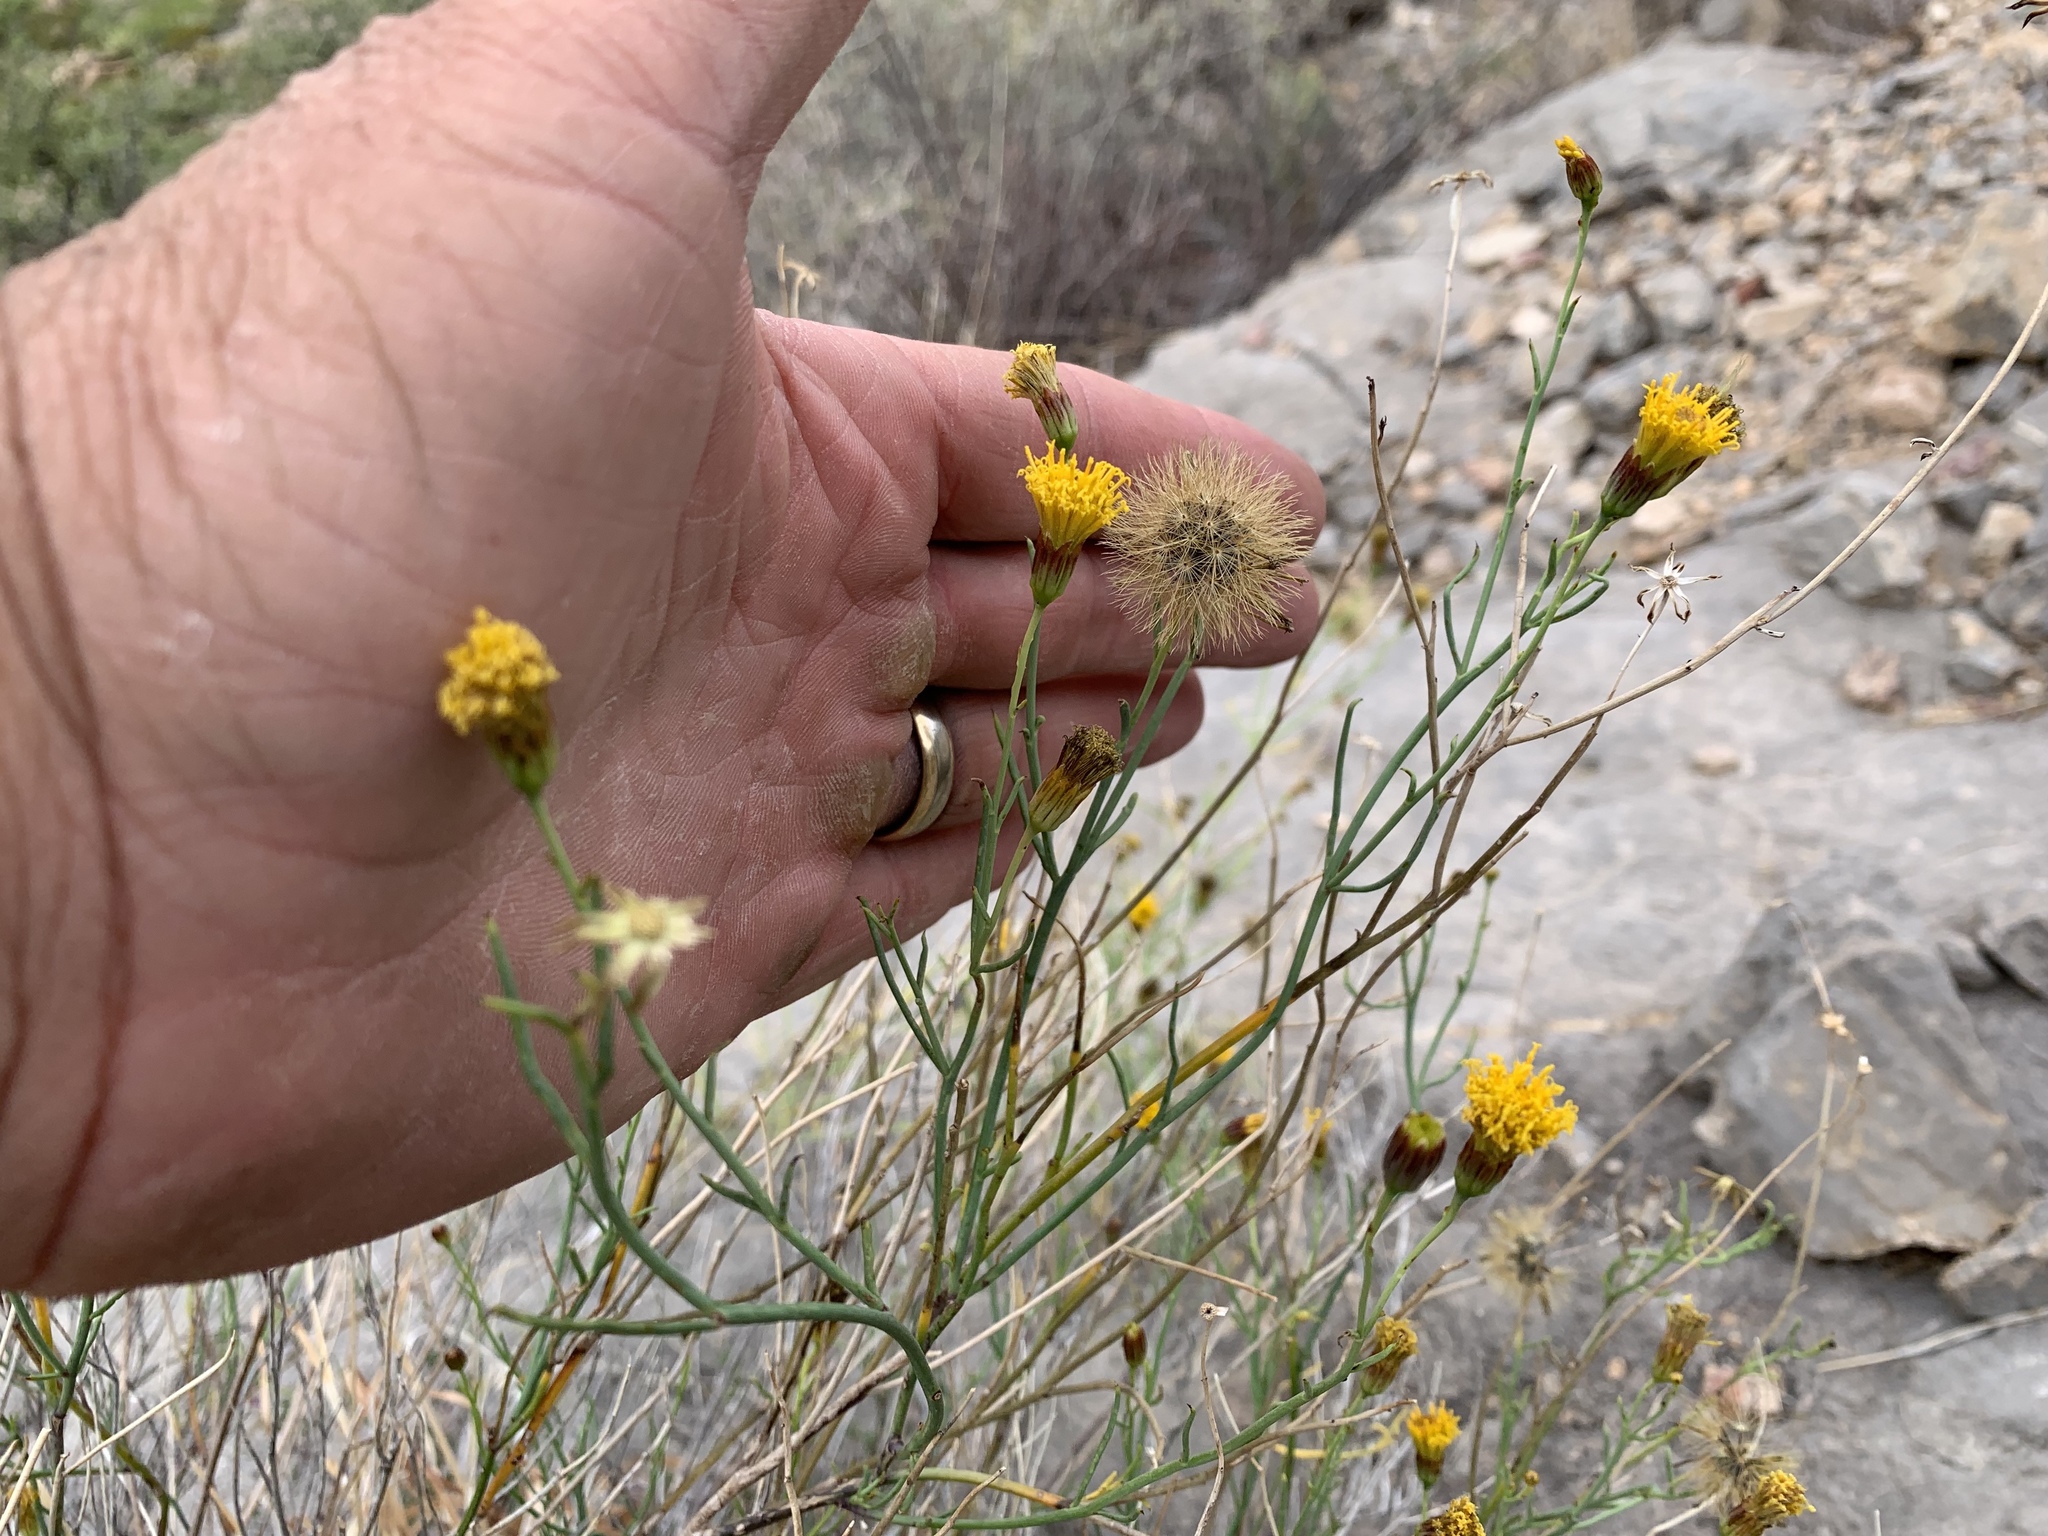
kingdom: Plantae
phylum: Tracheophyta
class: Magnoliopsida
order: Asterales
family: Asteraceae
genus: Porophyllum
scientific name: Porophyllum scoparium
